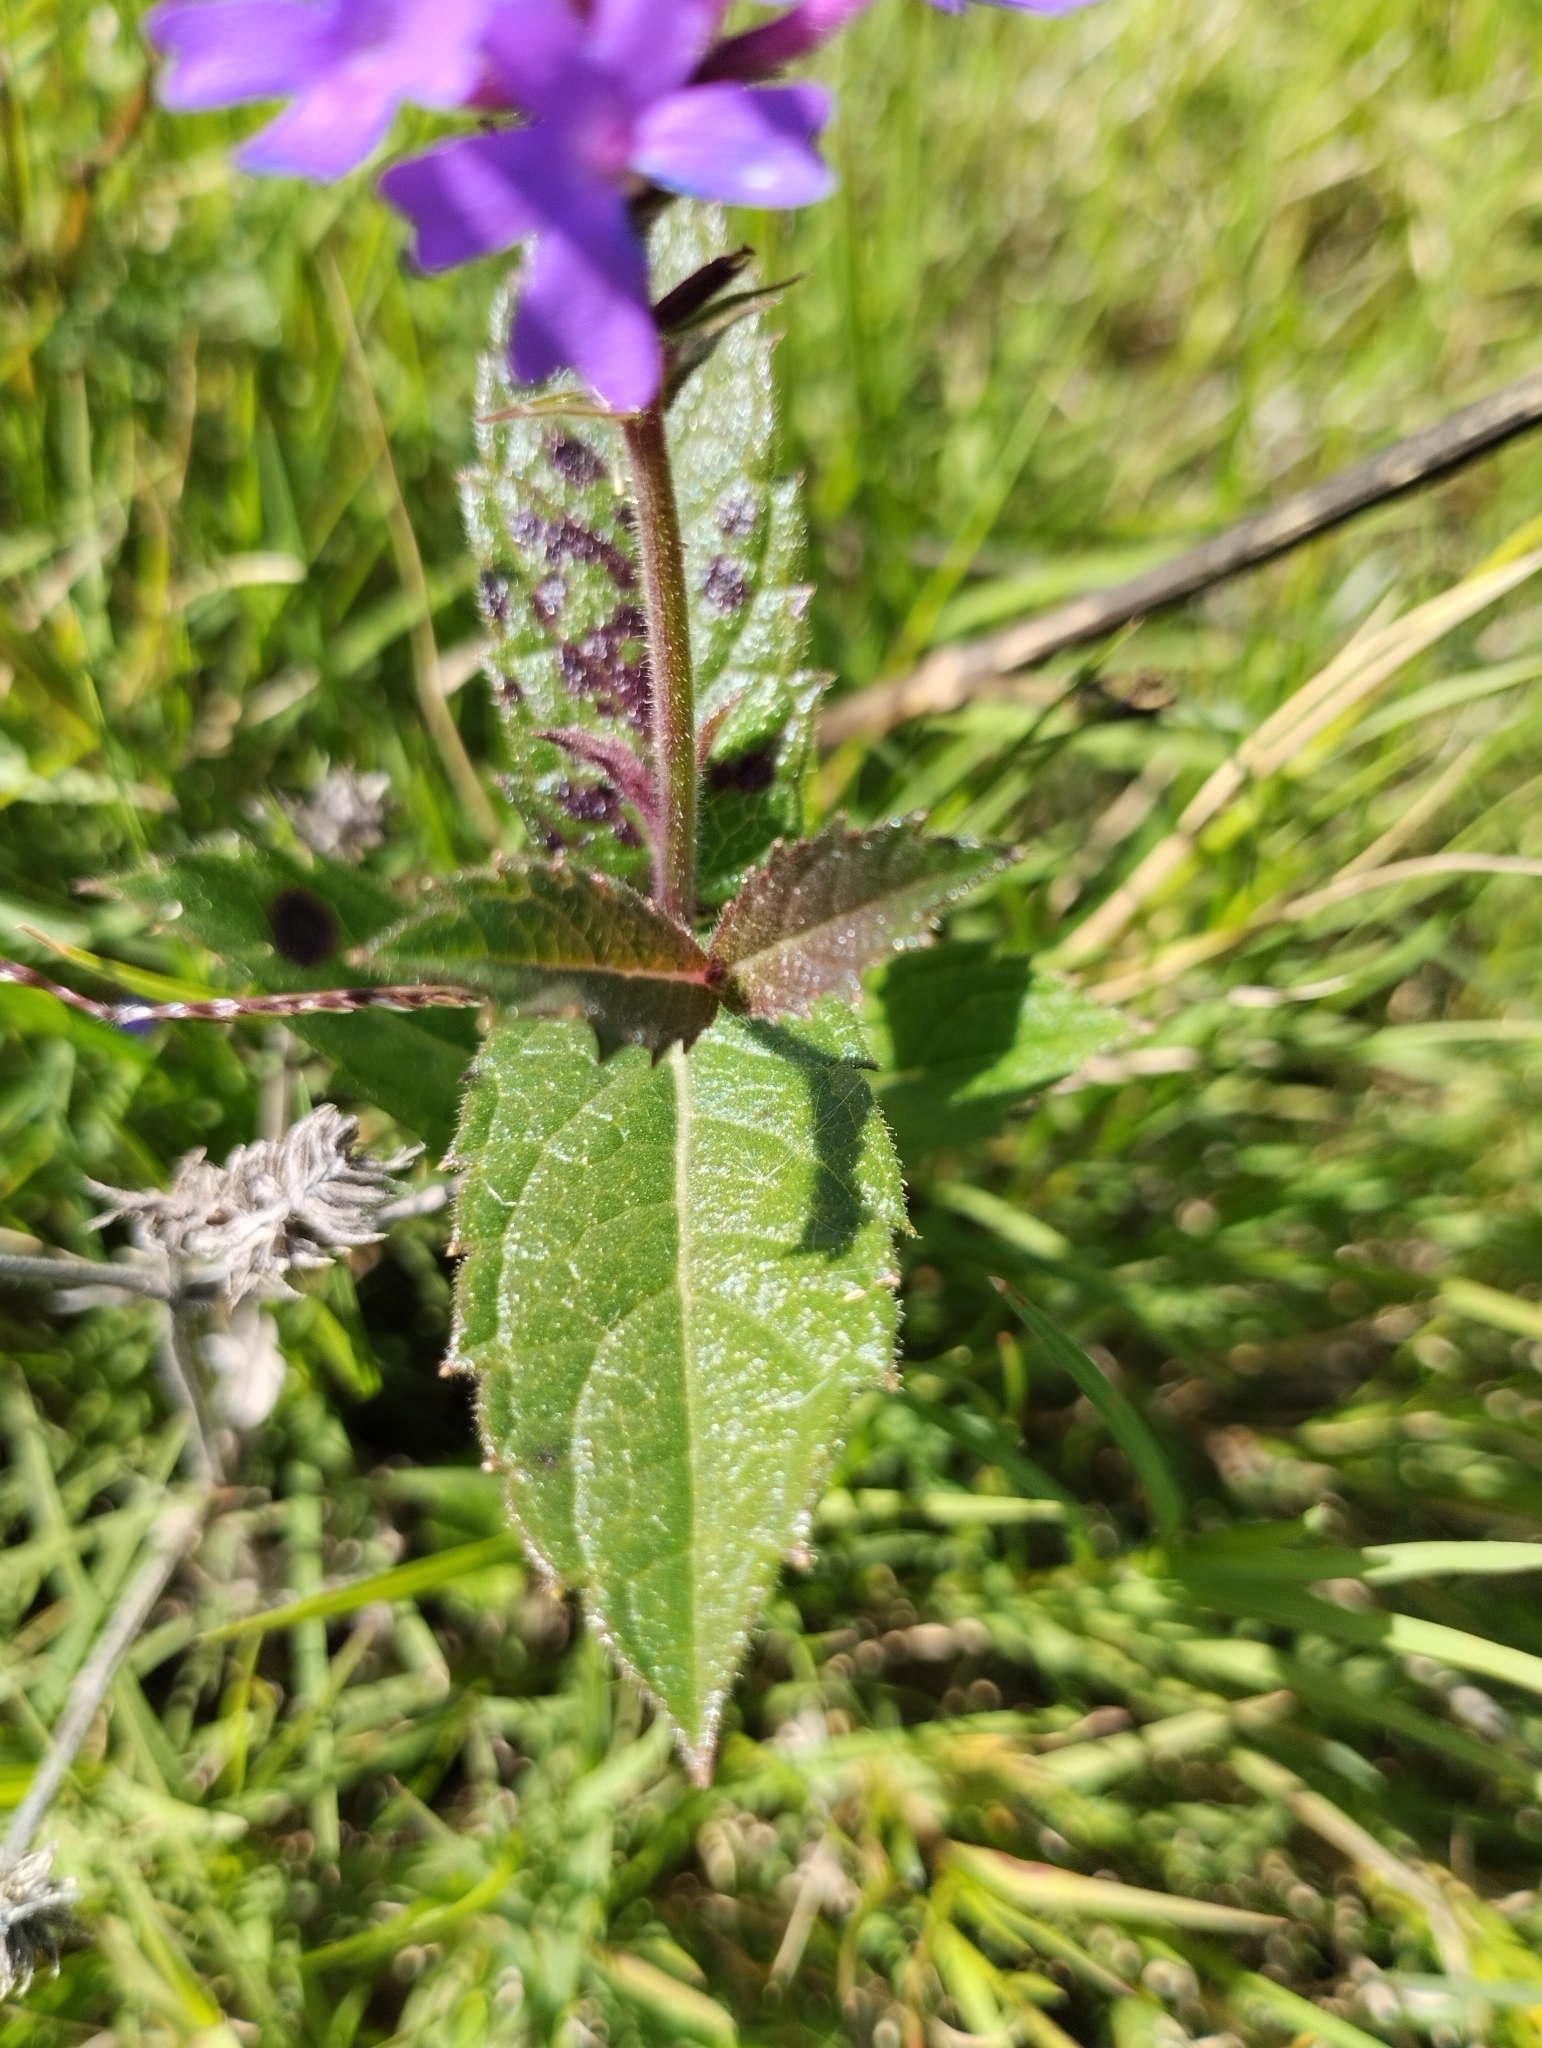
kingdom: Plantae
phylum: Tracheophyta
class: Magnoliopsida
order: Lamiales
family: Verbenaceae
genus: Verbena
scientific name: Verbena rigida
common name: Slender vervain
